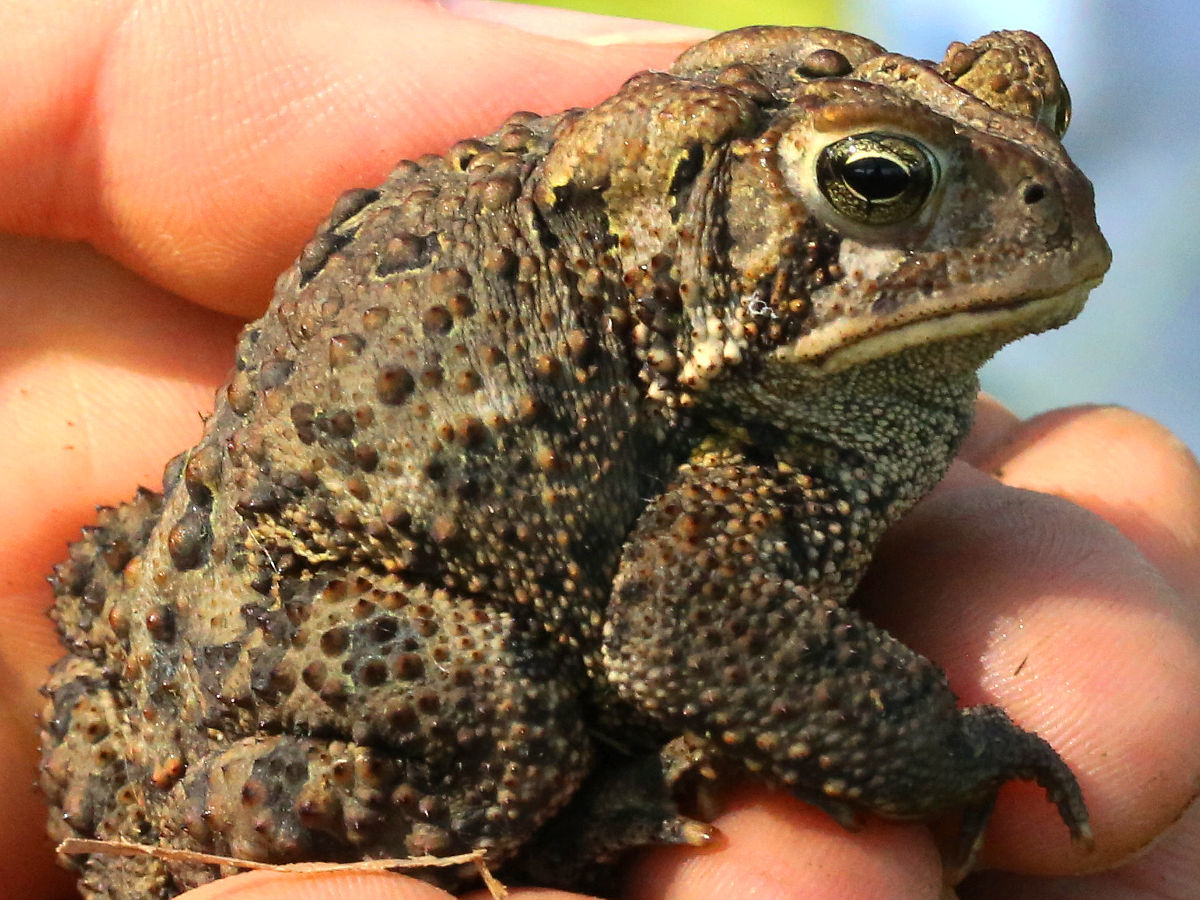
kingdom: Animalia
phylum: Chordata
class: Amphibia
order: Anura
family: Bufonidae
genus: Anaxyrus
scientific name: Anaxyrus americanus
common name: American toad
